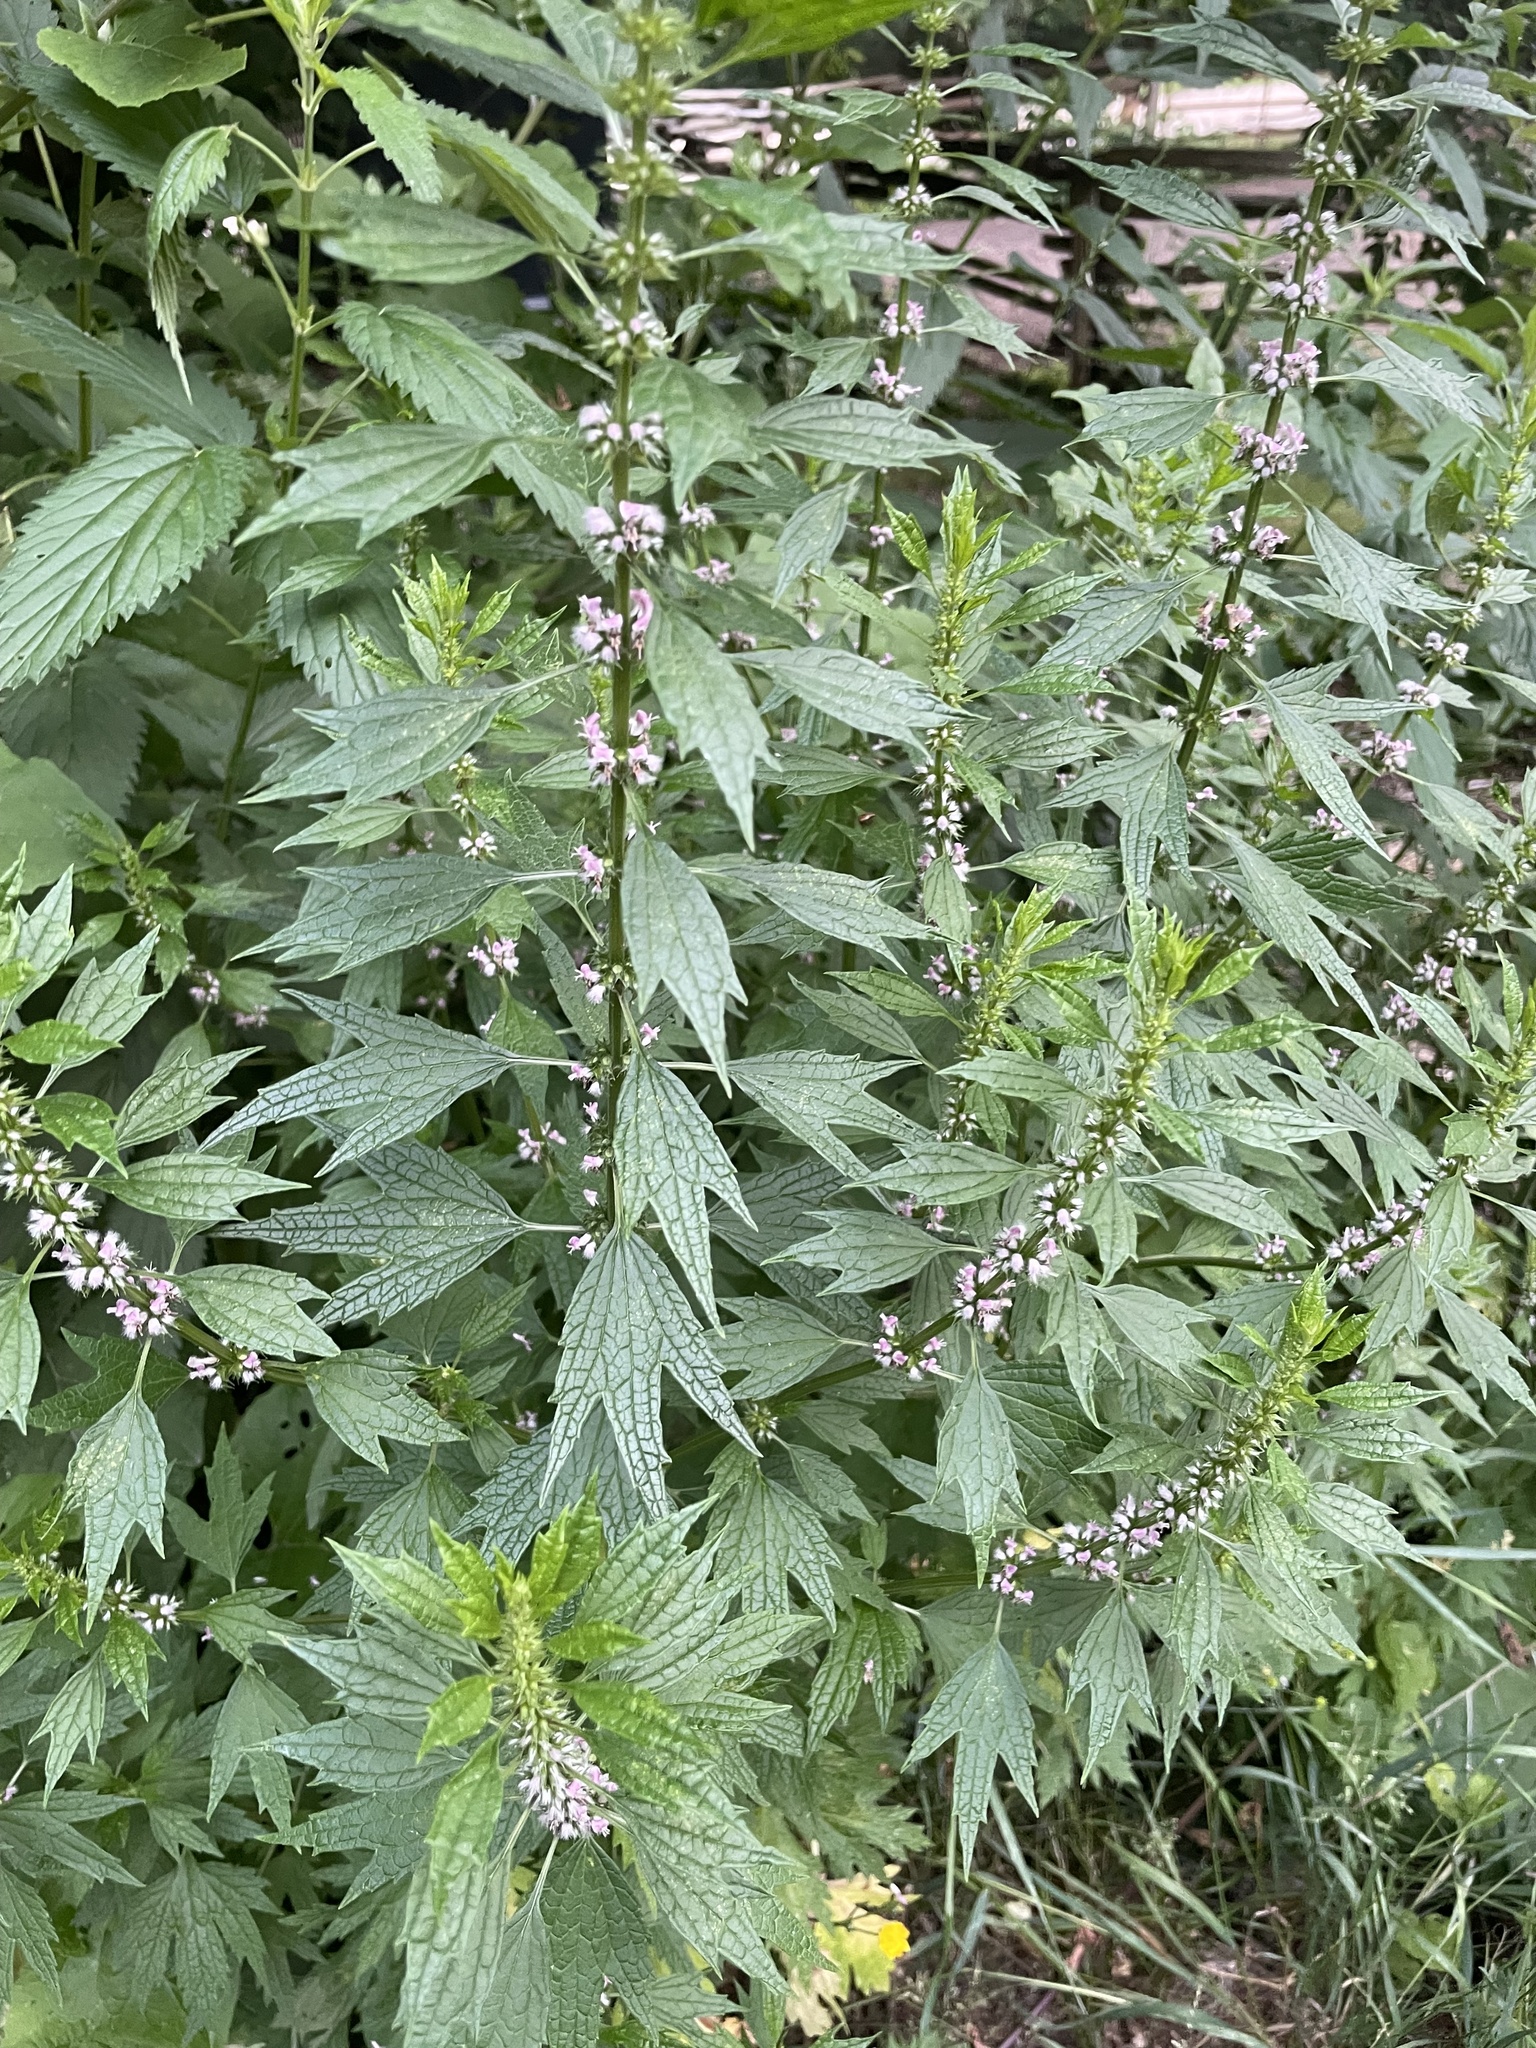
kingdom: Plantae
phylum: Tracheophyta
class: Magnoliopsida
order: Lamiales
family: Lamiaceae
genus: Leonurus
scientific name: Leonurus cardiaca
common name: Motherwort
